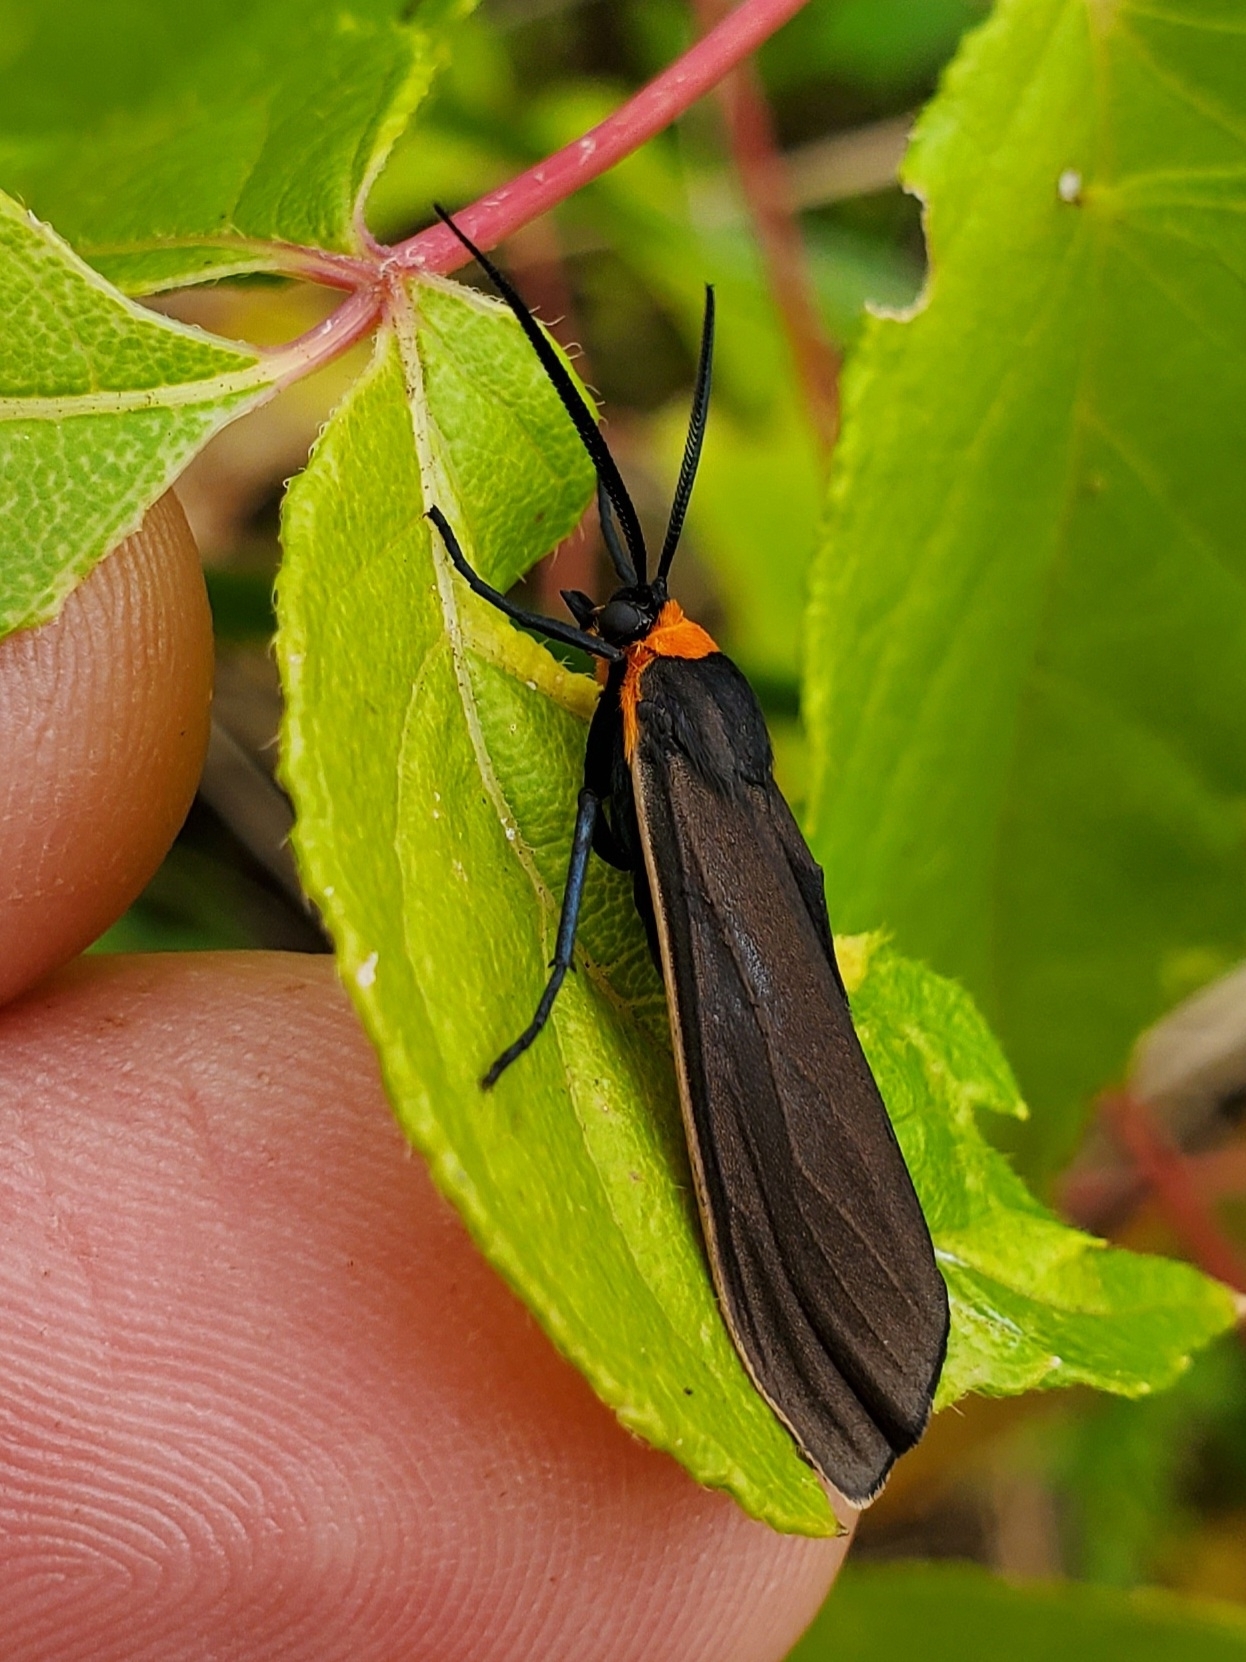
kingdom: Animalia
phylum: Arthropoda
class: Insecta
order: Lepidoptera
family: Erebidae
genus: Cisseps
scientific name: Cisseps fulvicollis
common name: Yellow-collared scape moth
